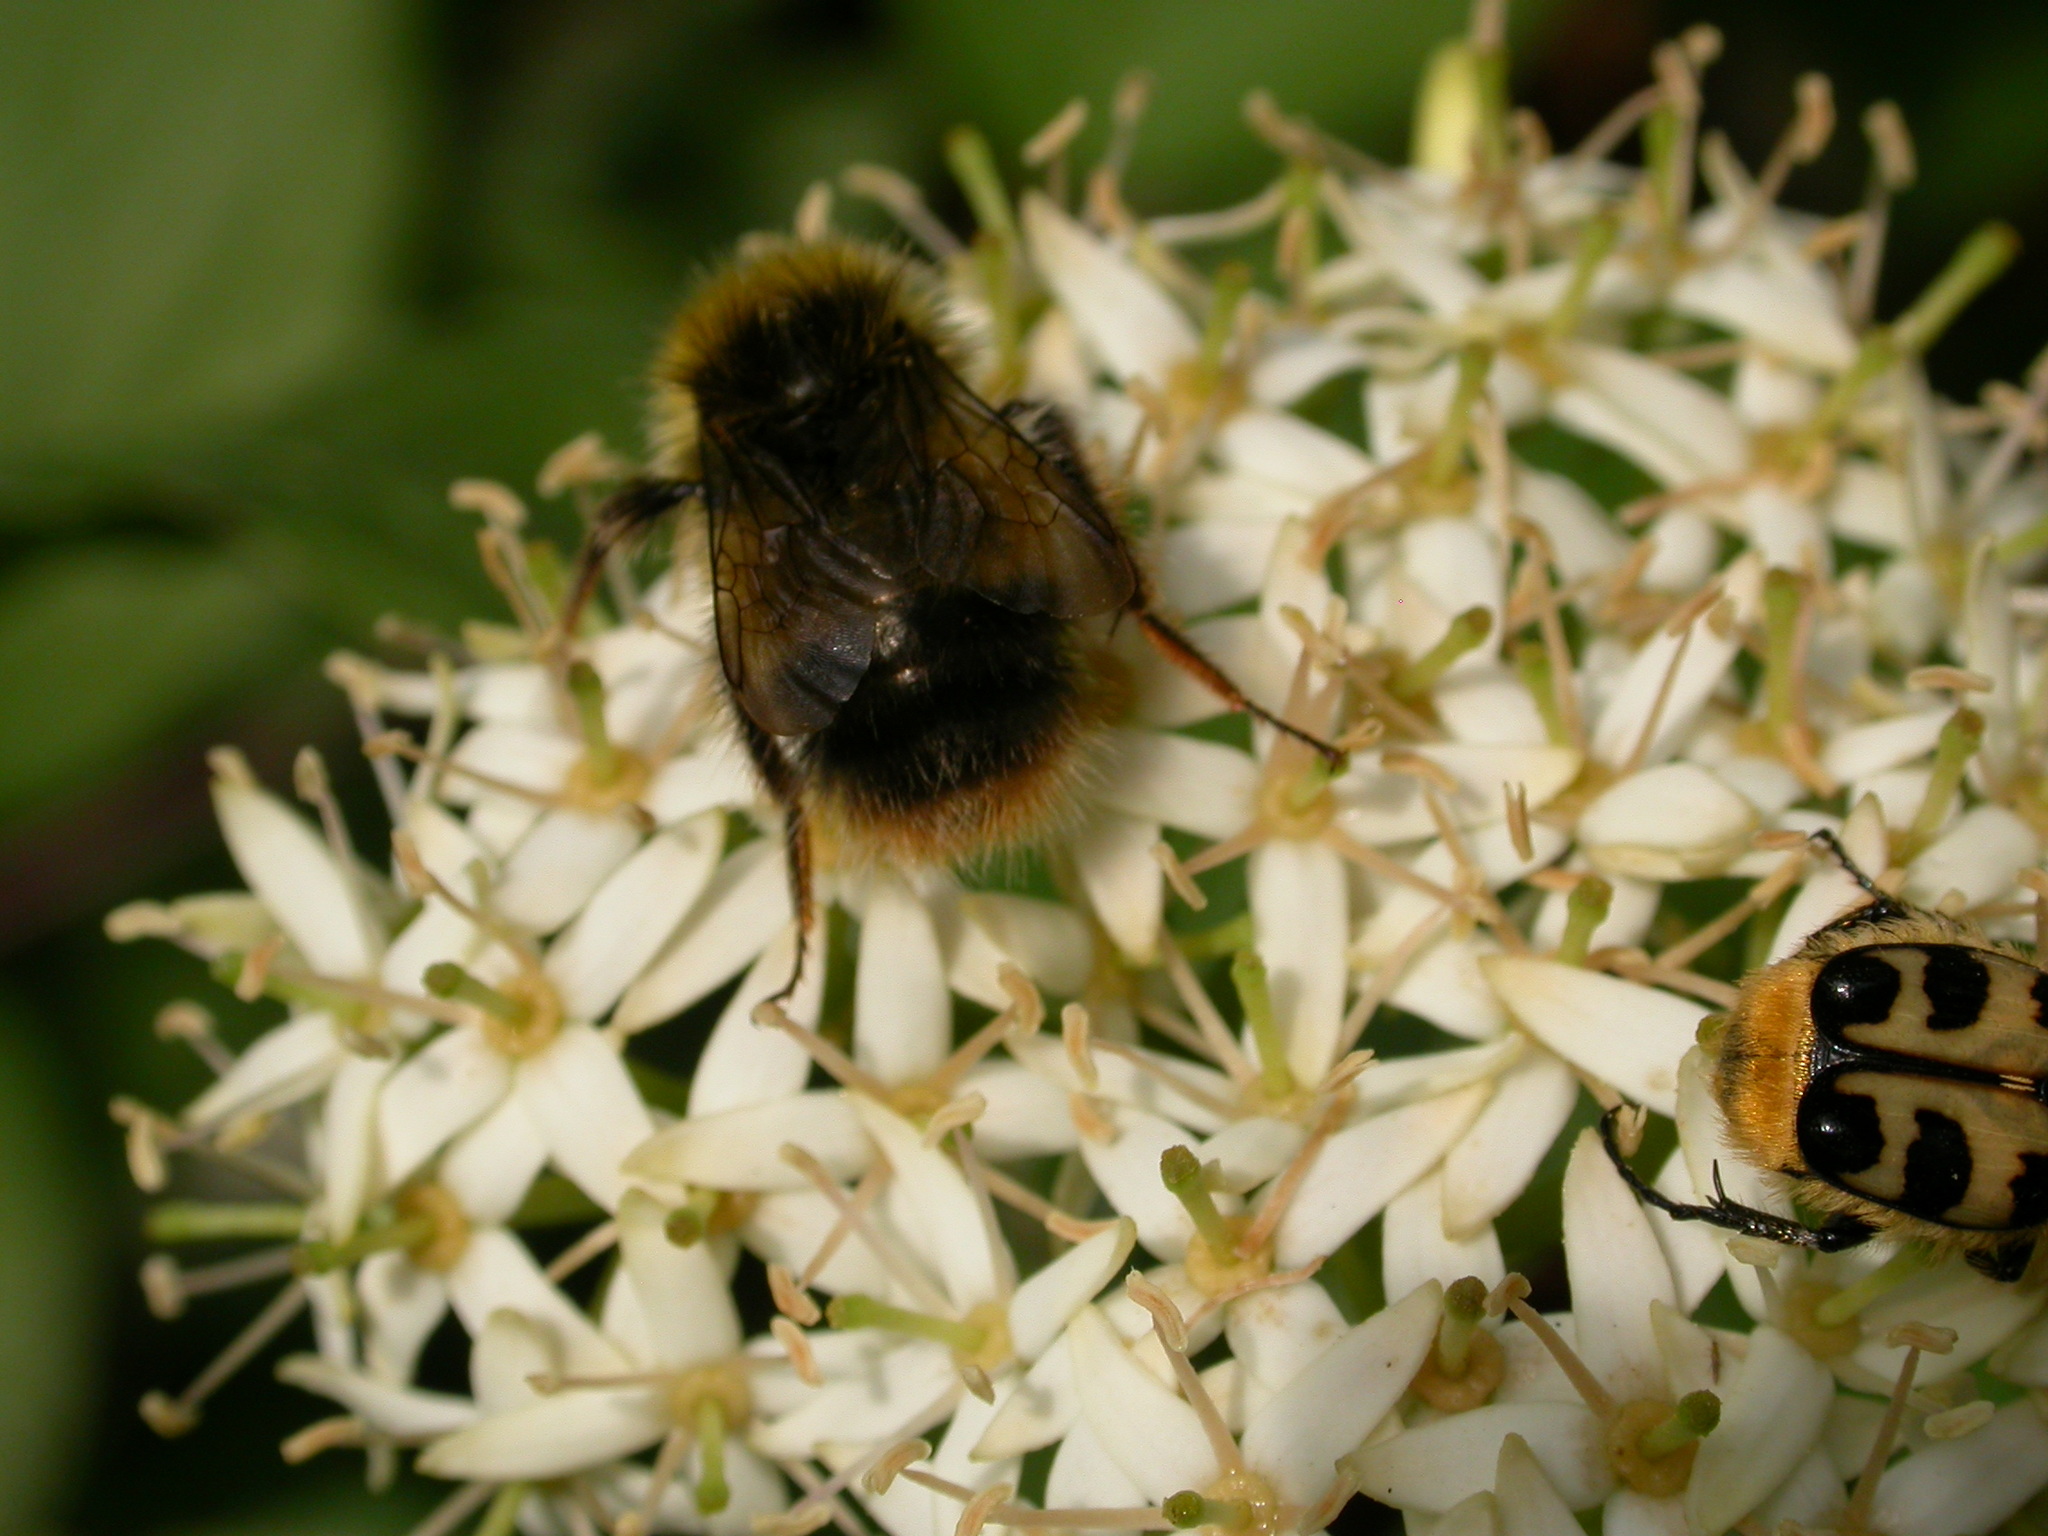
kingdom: Animalia
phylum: Arthropoda
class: Insecta
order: Hymenoptera
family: Apidae
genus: Bombus
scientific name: Bombus pratorum
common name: Early humble-bee
